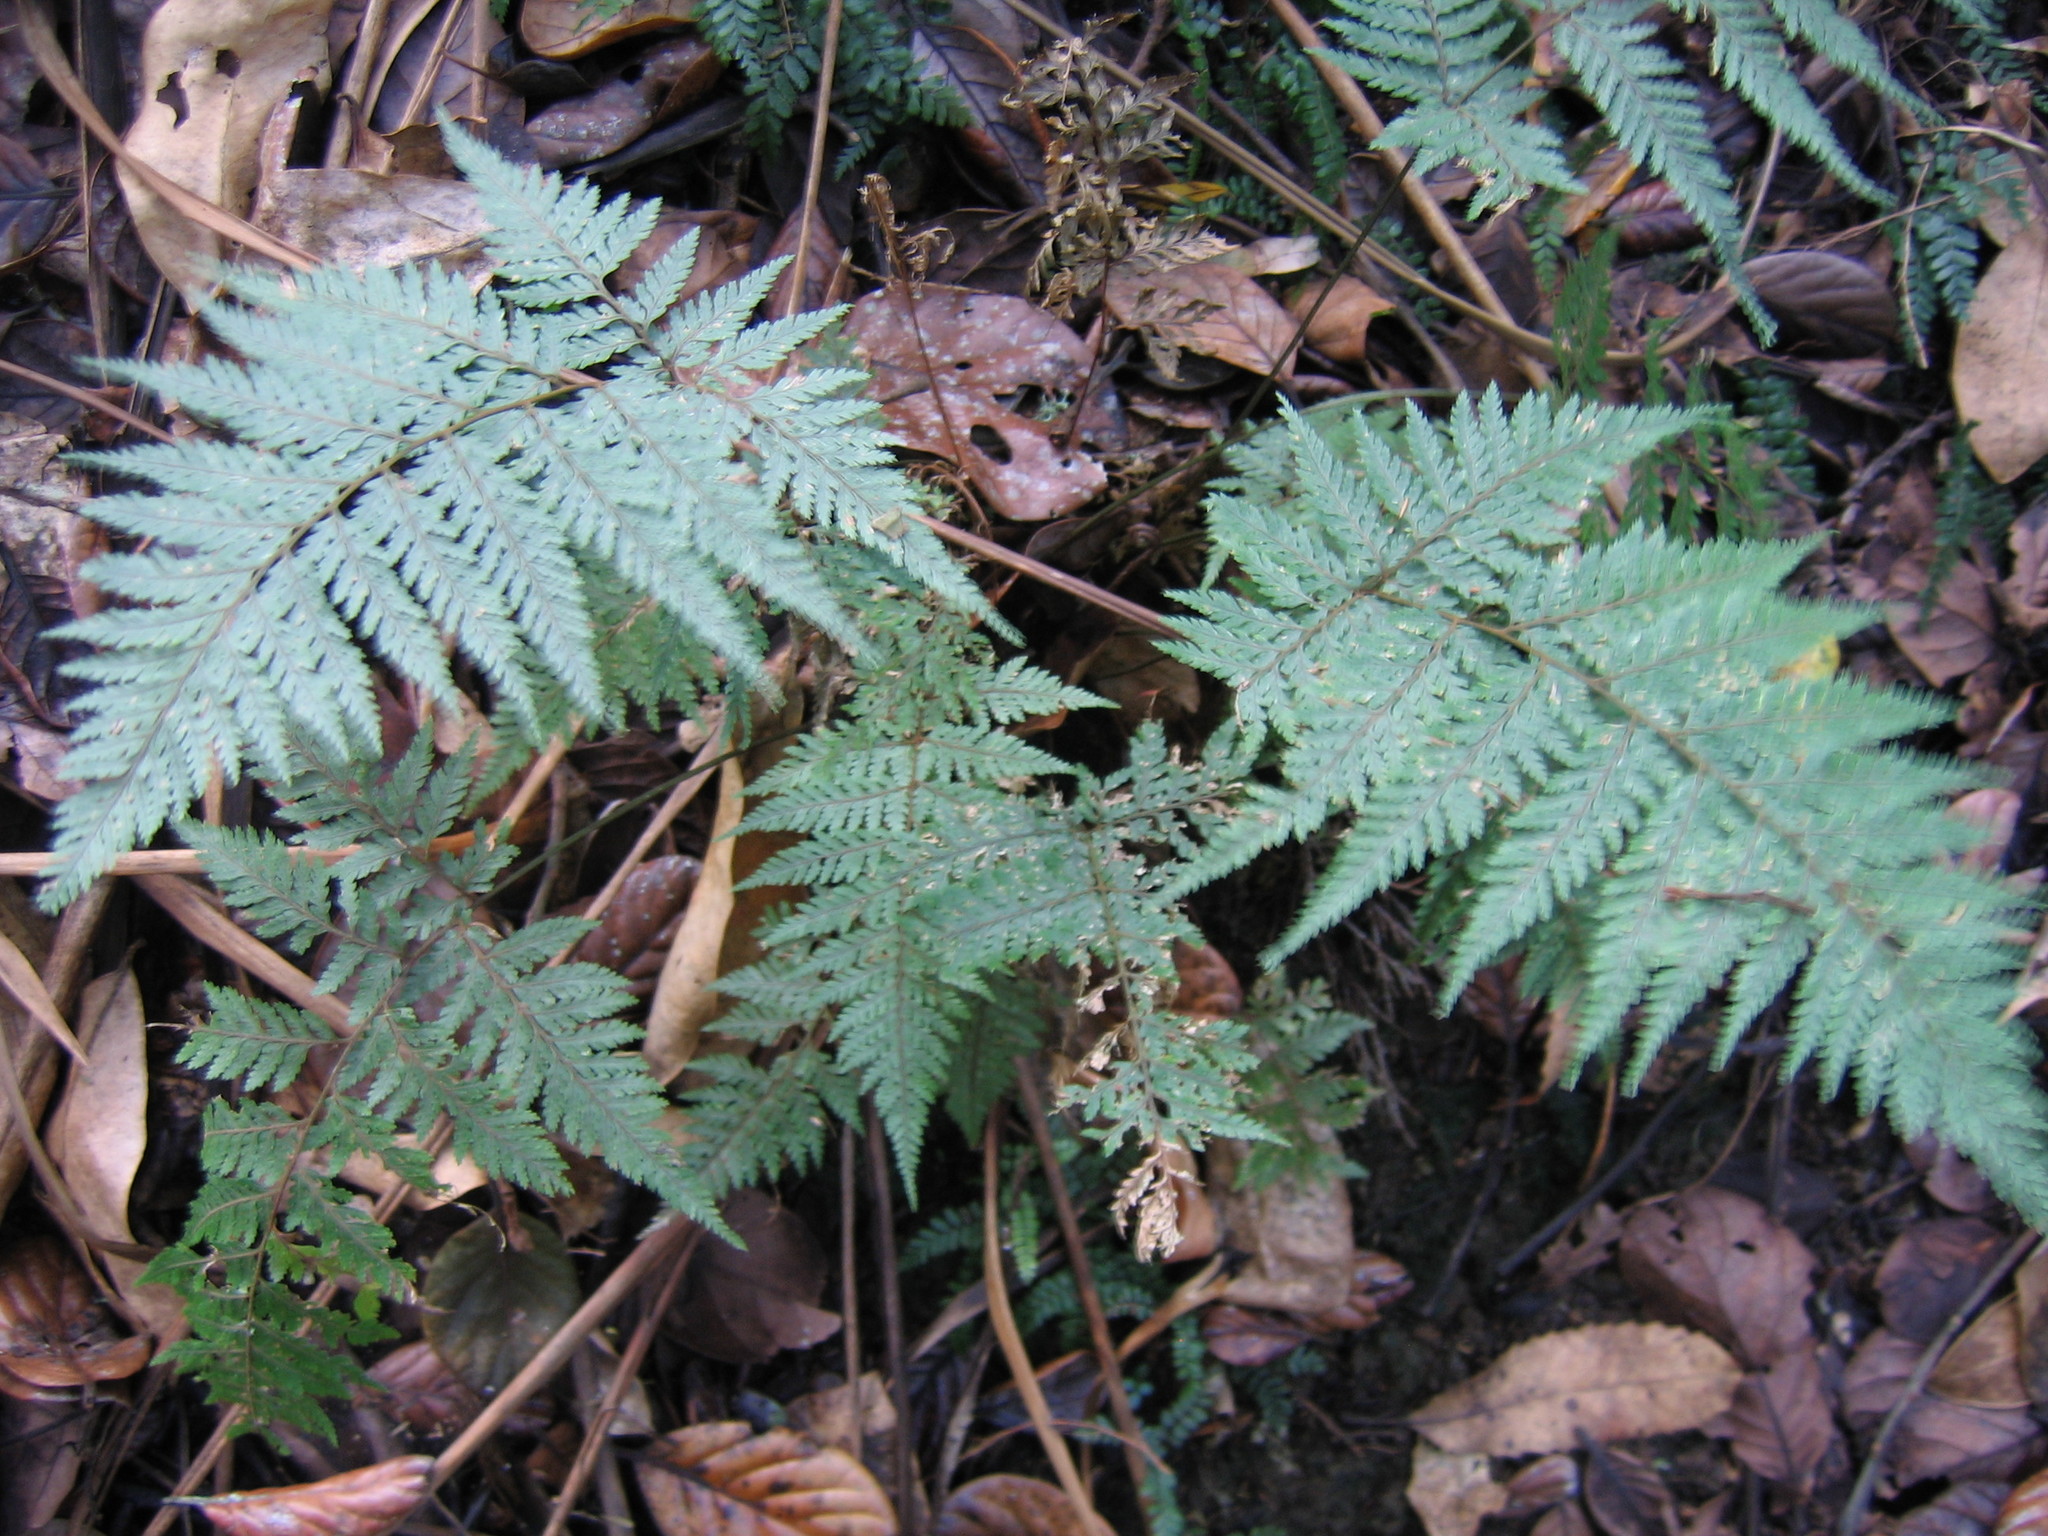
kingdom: Plantae
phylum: Tracheophyta
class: Polypodiopsida
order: Polypodiales
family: Dryopteridaceae
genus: Parapolystichum
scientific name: Parapolystichum glabellum
